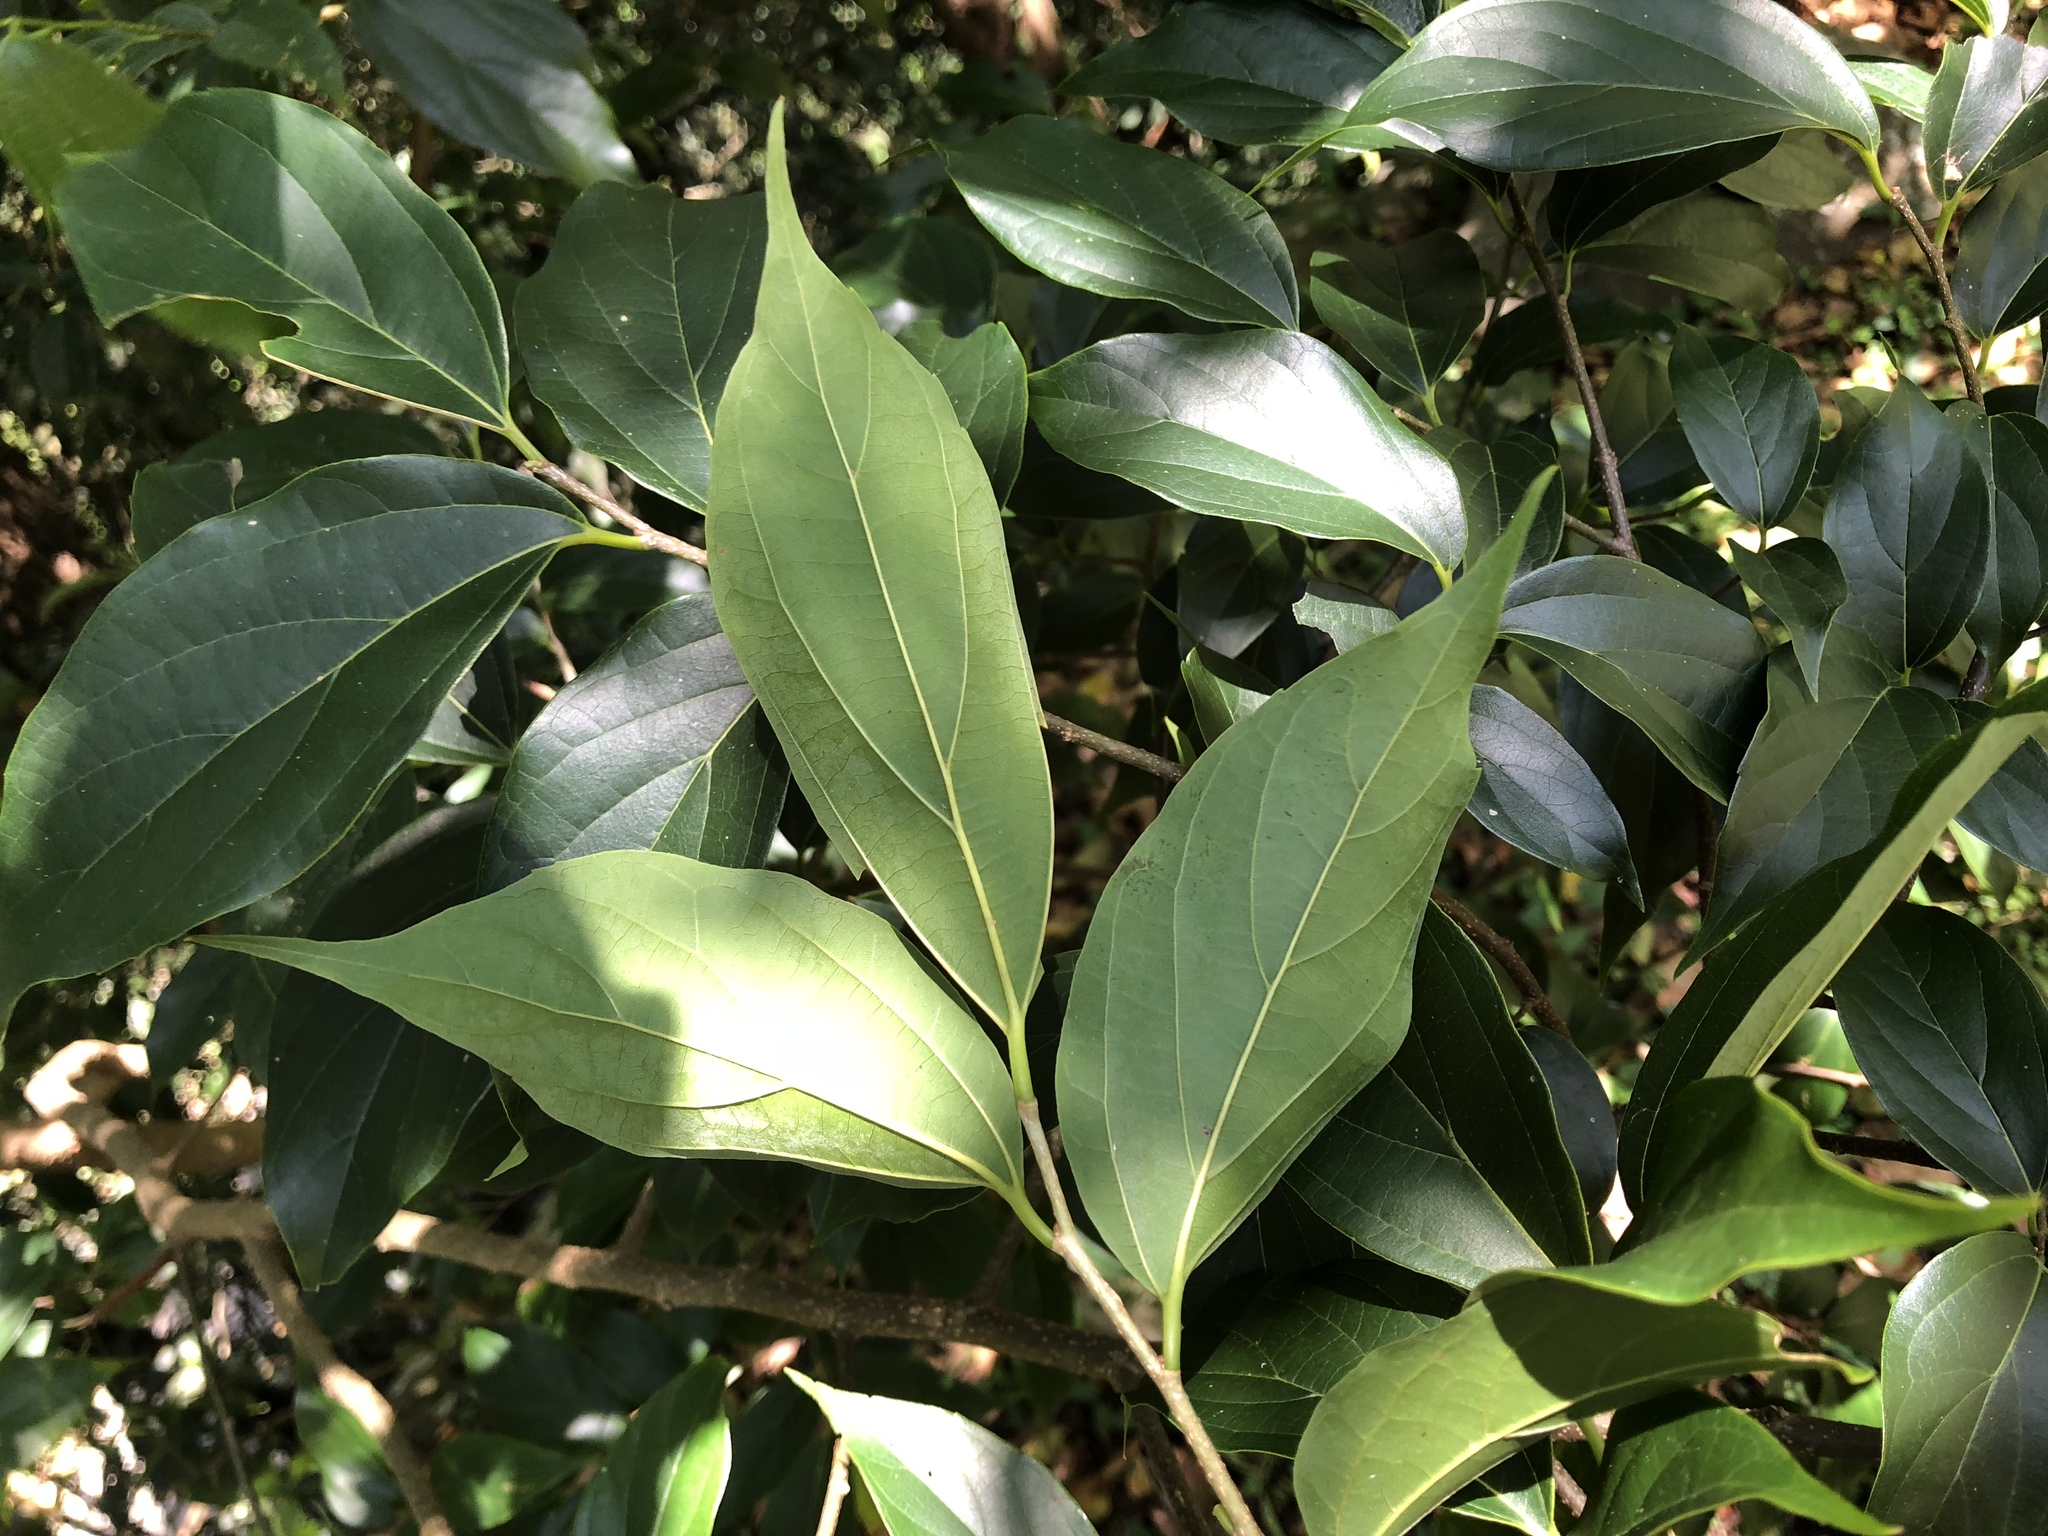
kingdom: Plantae
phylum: Tracheophyta
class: Magnoliopsida
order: Rosales
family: Cannabaceae
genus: Celtis
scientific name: Celtis tetrandra
